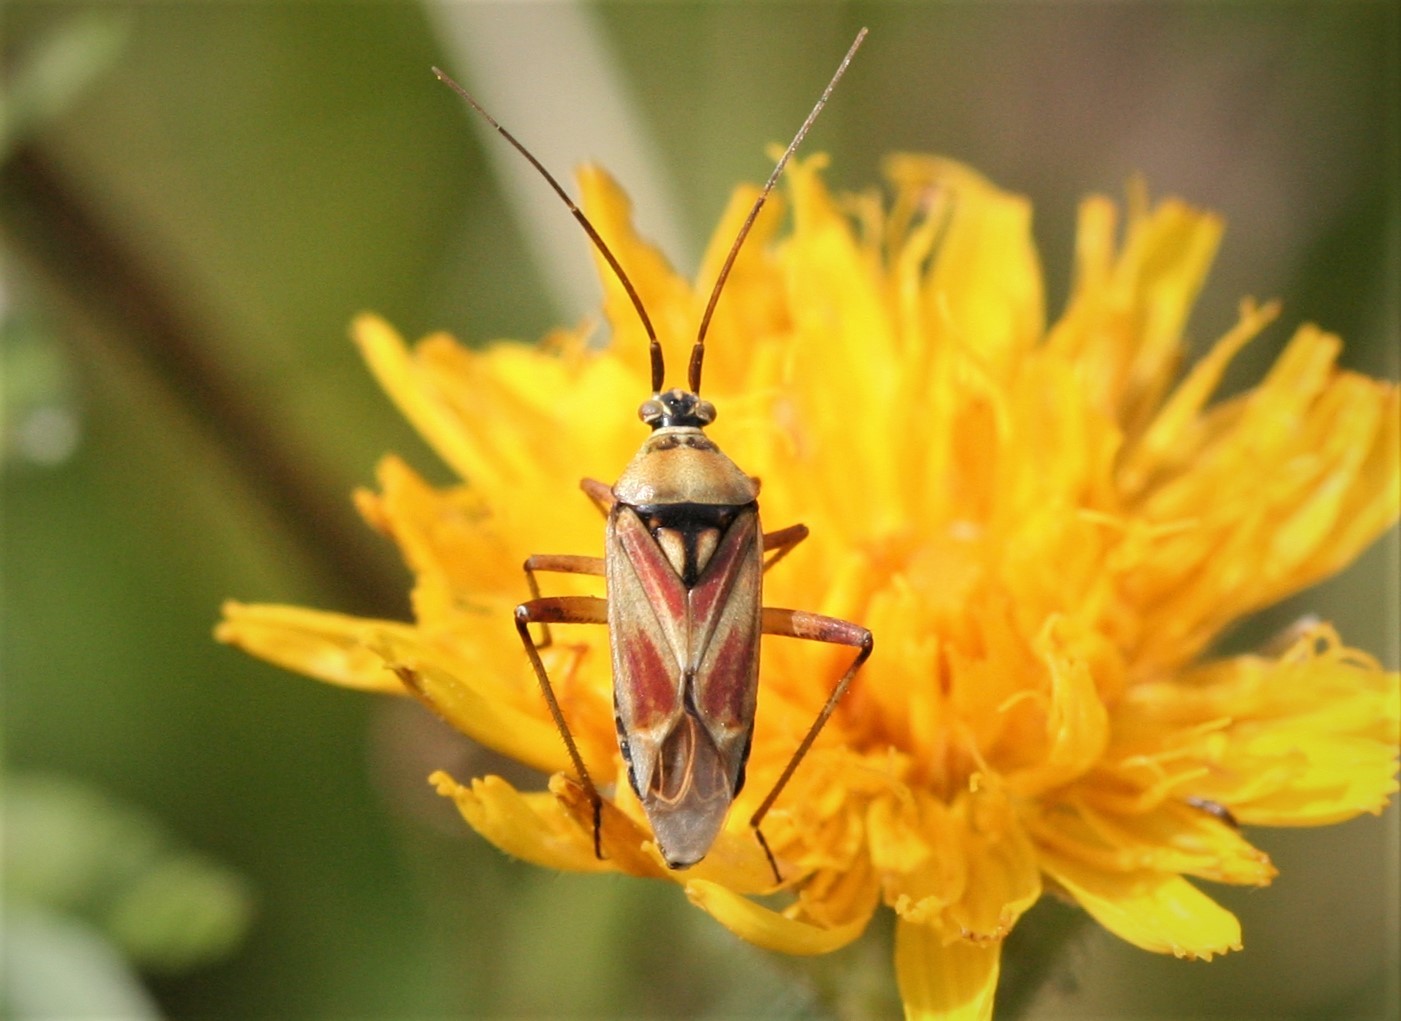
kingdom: Animalia
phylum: Arthropoda
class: Insecta
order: Hemiptera
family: Miridae
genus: Calocoris
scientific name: Calocoris roseomaculatus
